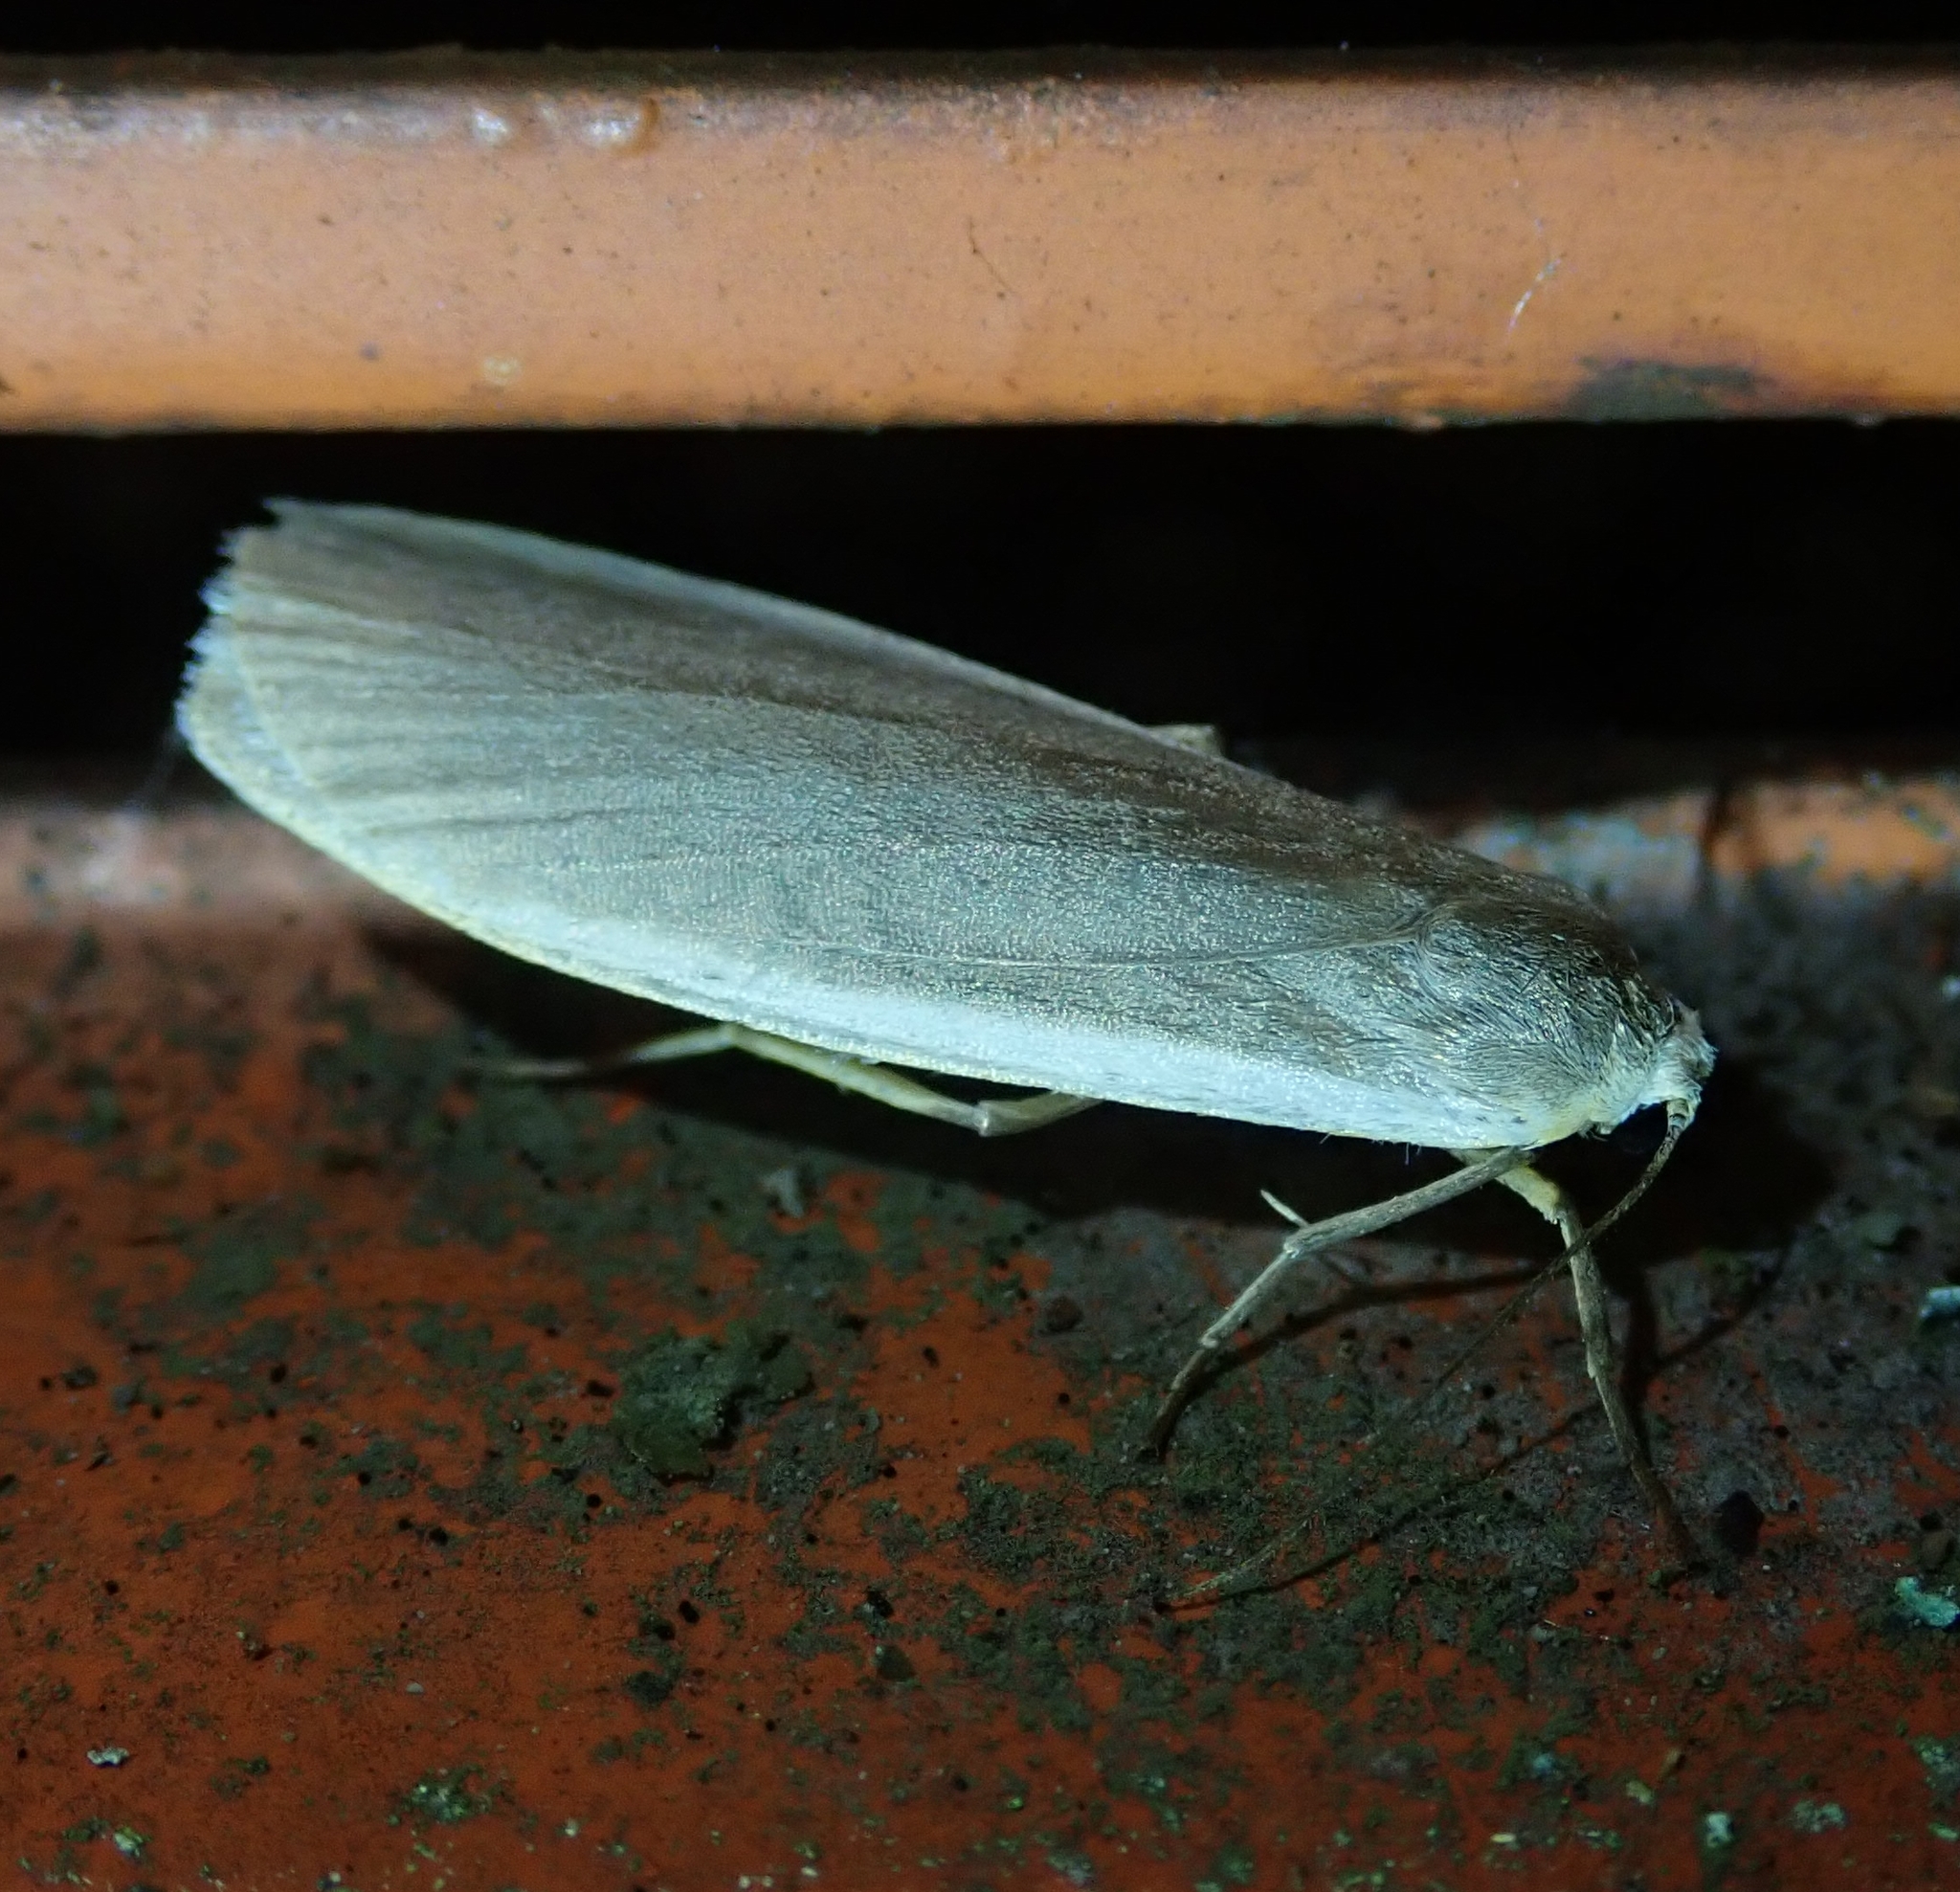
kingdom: Animalia
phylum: Arthropoda
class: Insecta
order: Lepidoptera
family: Erebidae
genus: Nyea
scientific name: Nyea lurideola
